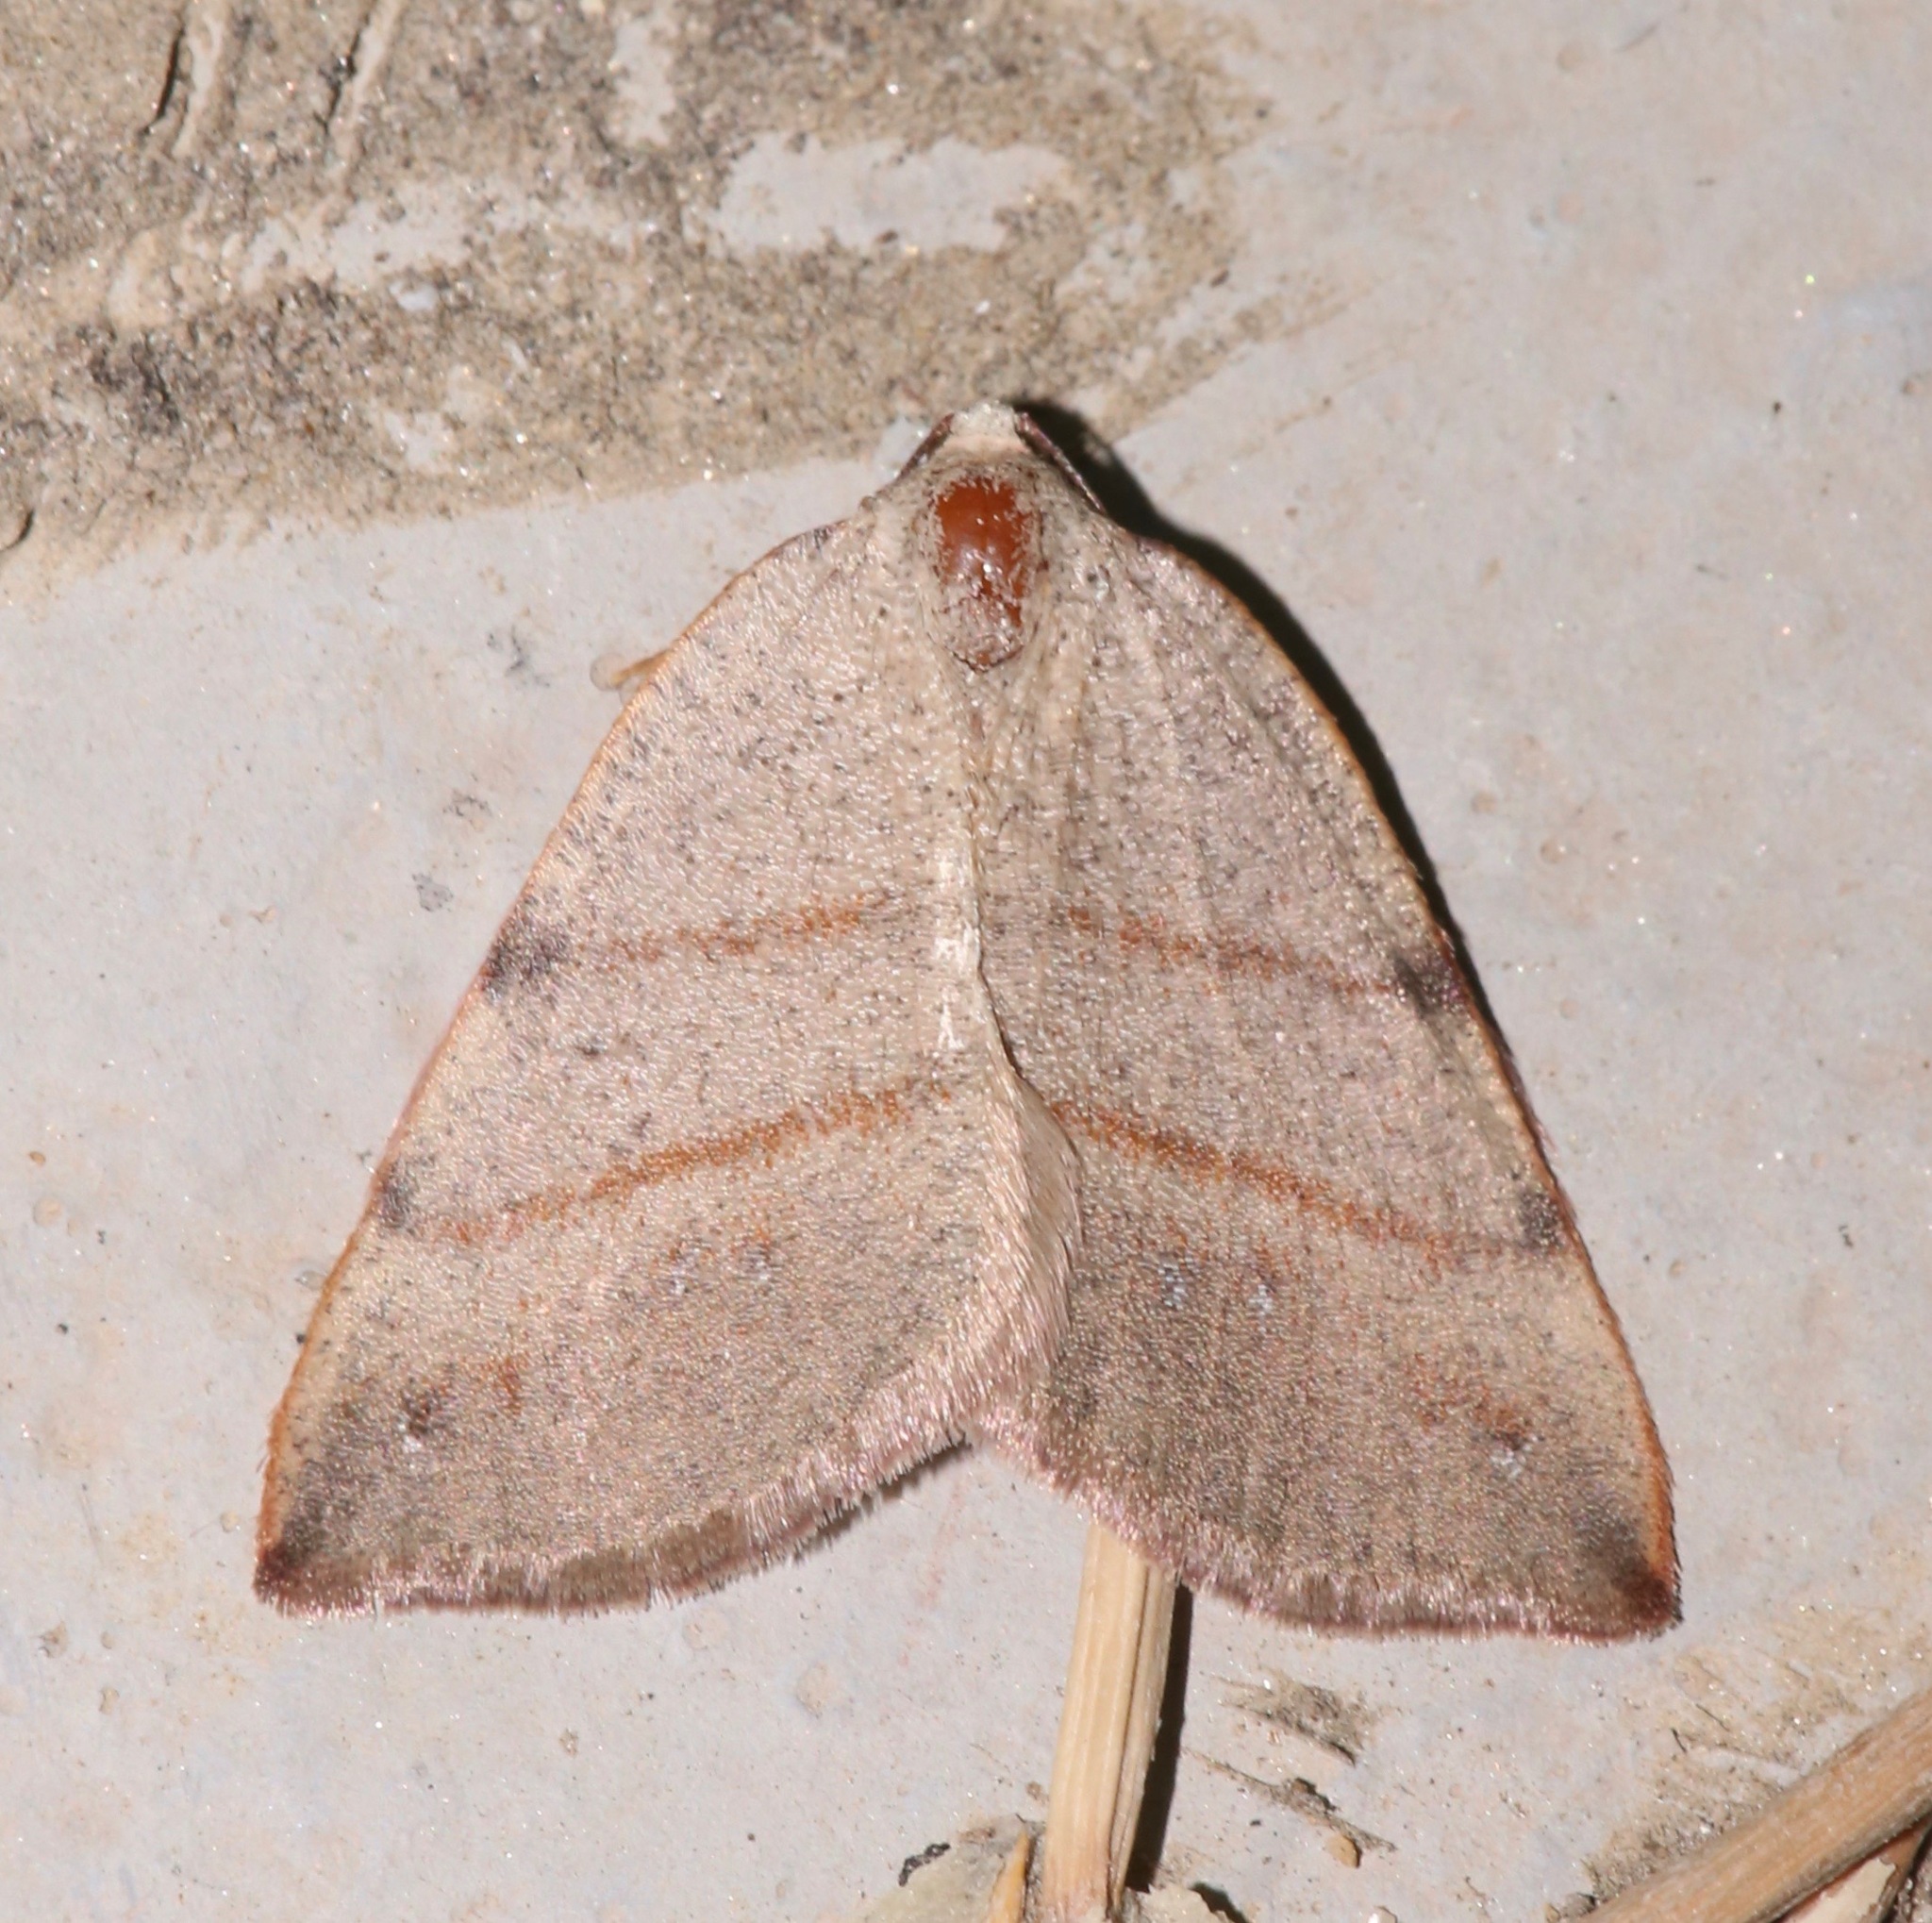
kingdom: Animalia
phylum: Arthropoda
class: Insecta
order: Lepidoptera
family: Geometridae
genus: Drepanulatrix
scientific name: Drepanulatrix bifilata
